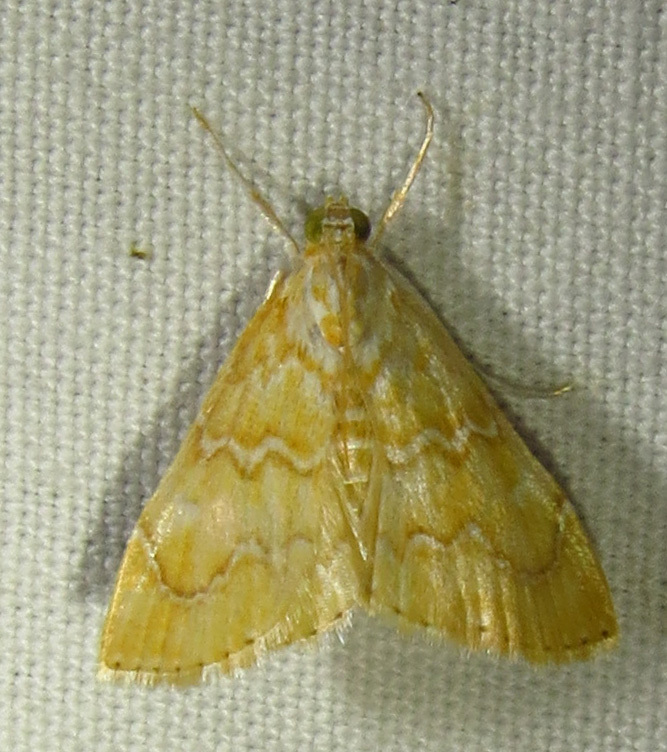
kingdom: Animalia
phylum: Arthropoda
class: Insecta
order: Lepidoptera
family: Crambidae
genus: Glaphyria
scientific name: Glaphyria sesquistrialis
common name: White-roped glaphyria
